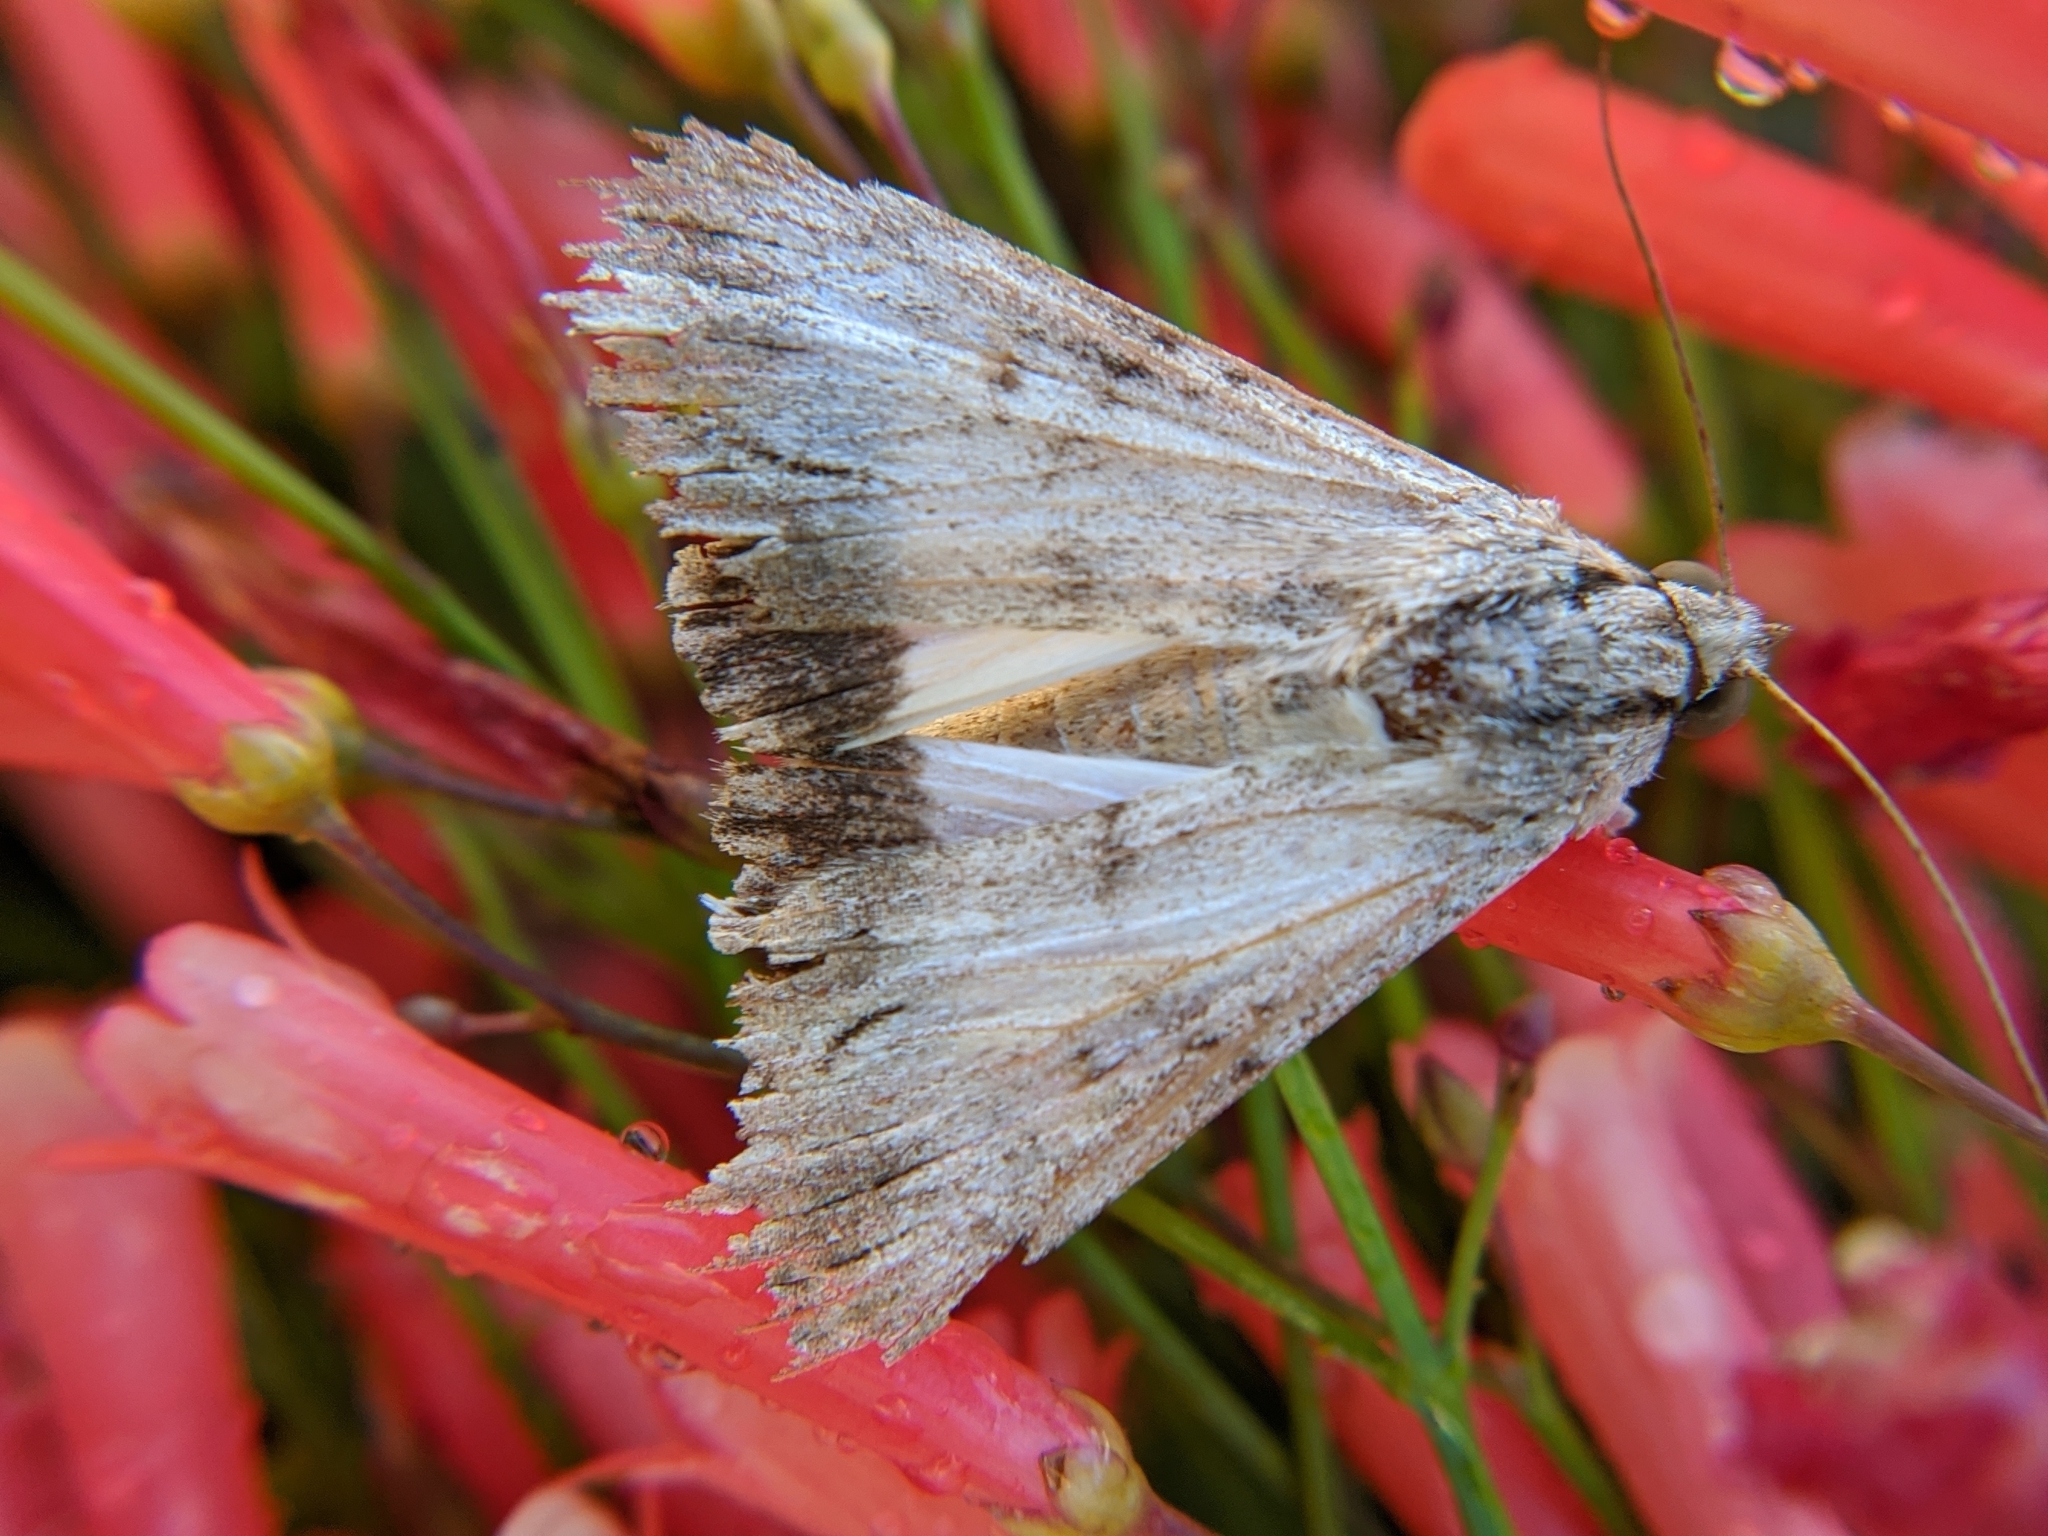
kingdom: Animalia
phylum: Arthropoda
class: Insecta
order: Lepidoptera
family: Erebidae
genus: Melipotis
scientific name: Melipotis acontioides
